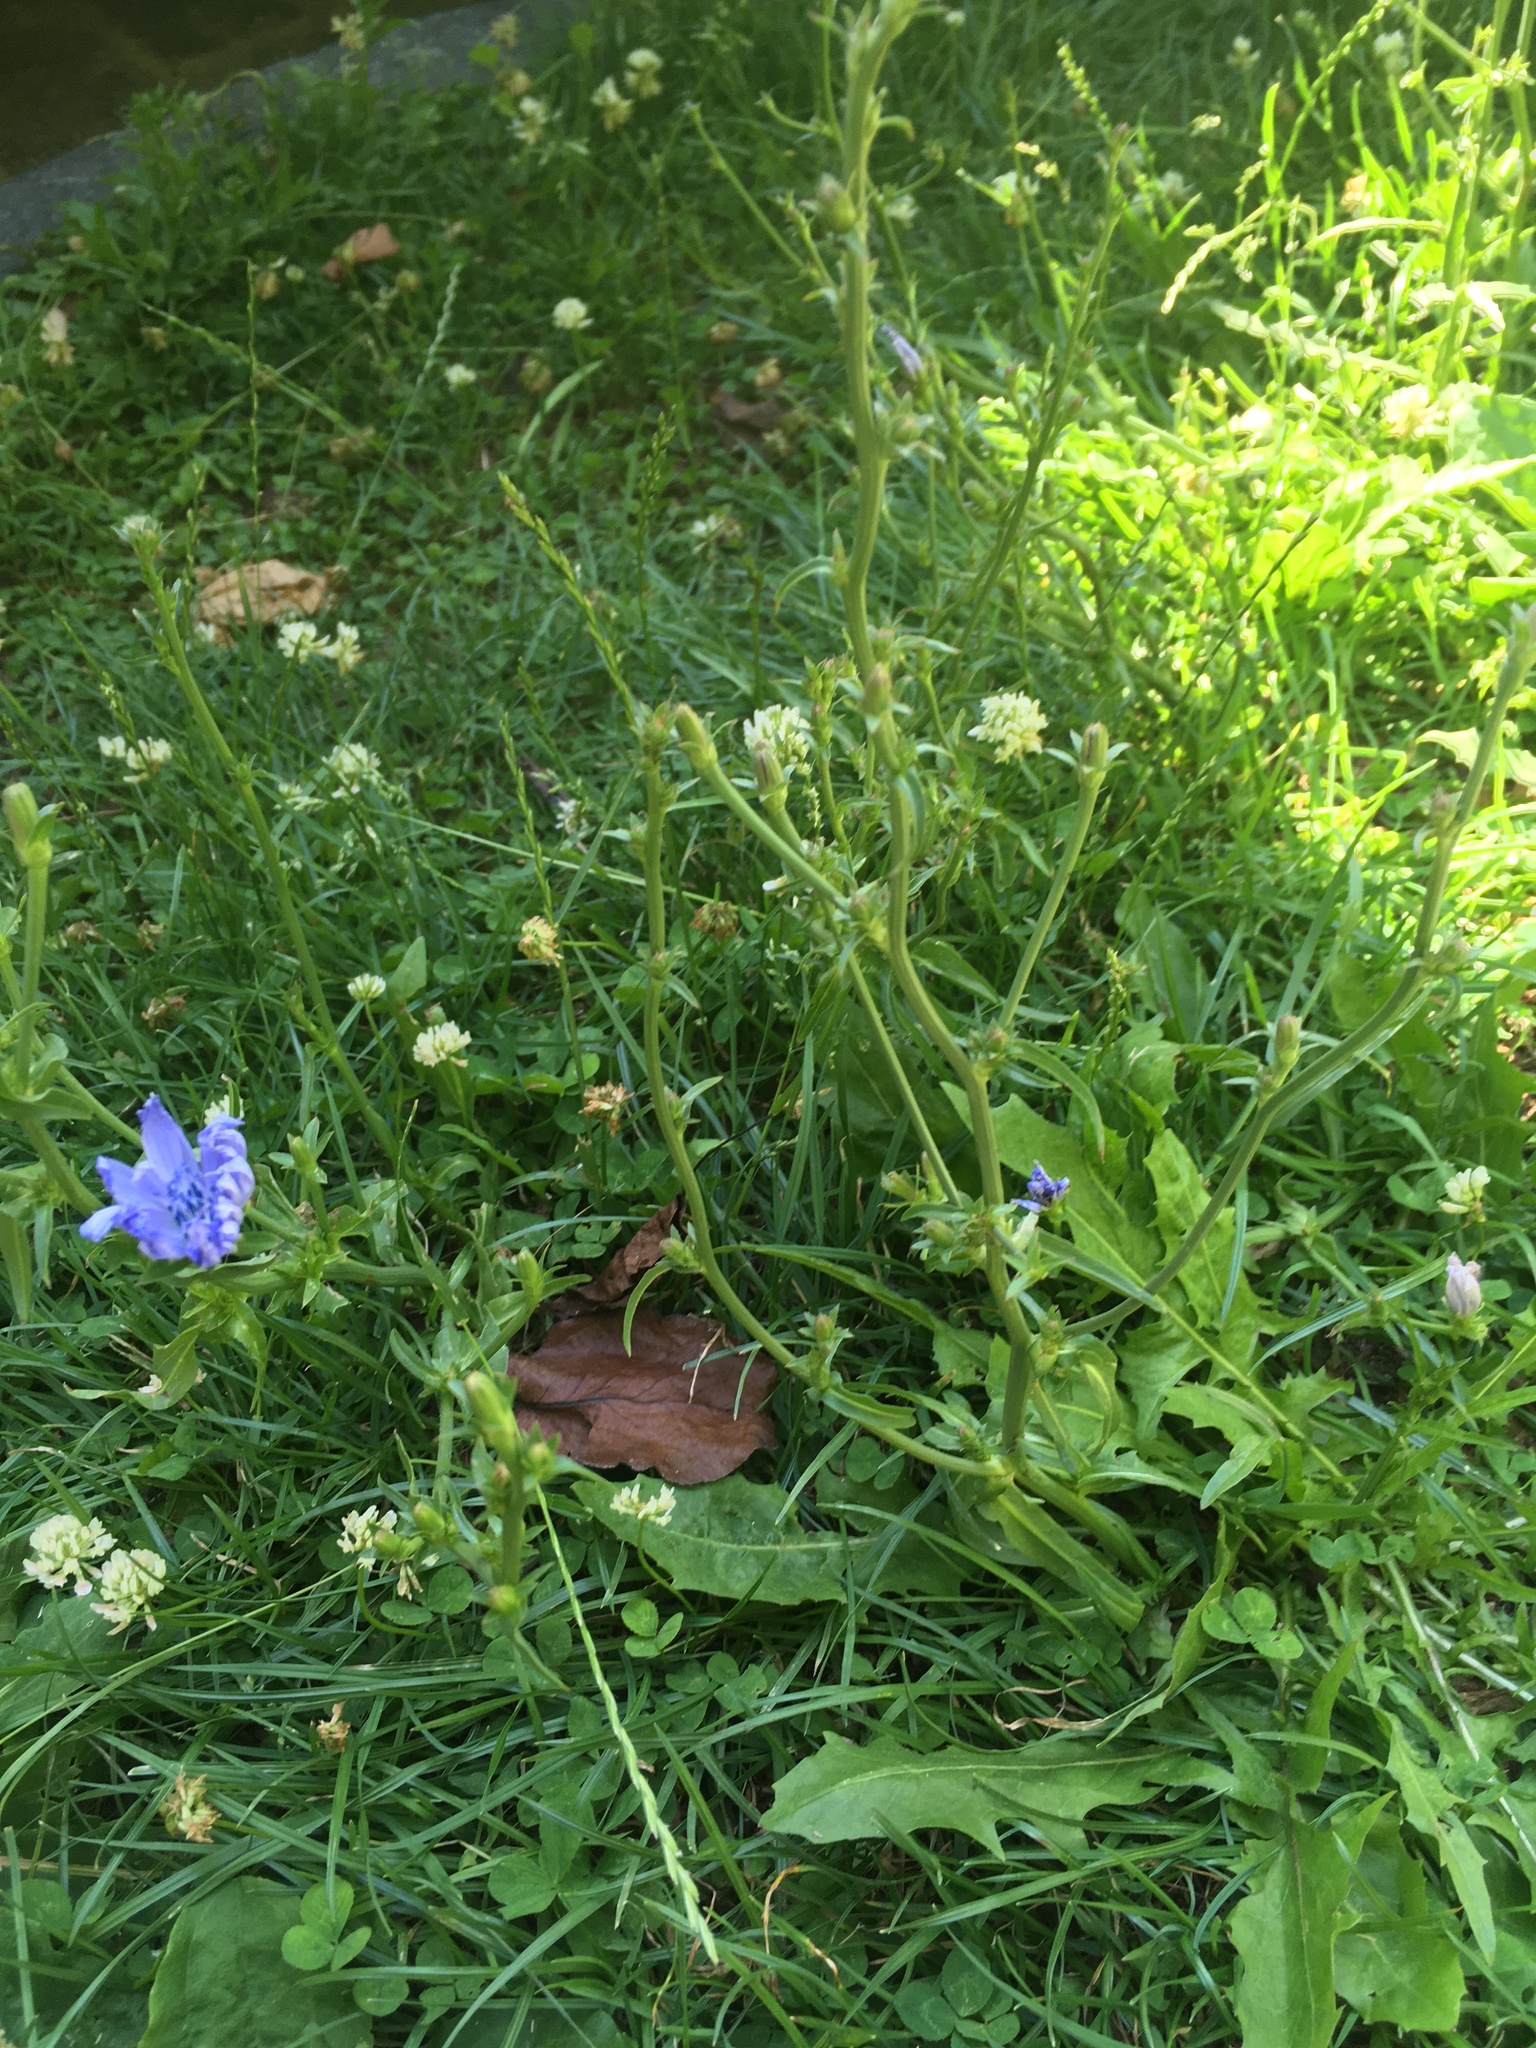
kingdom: Plantae
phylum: Tracheophyta
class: Magnoliopsida
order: Asterales
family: Asteraceae
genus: Cichorium
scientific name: Cichorium intybus
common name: Chicory
